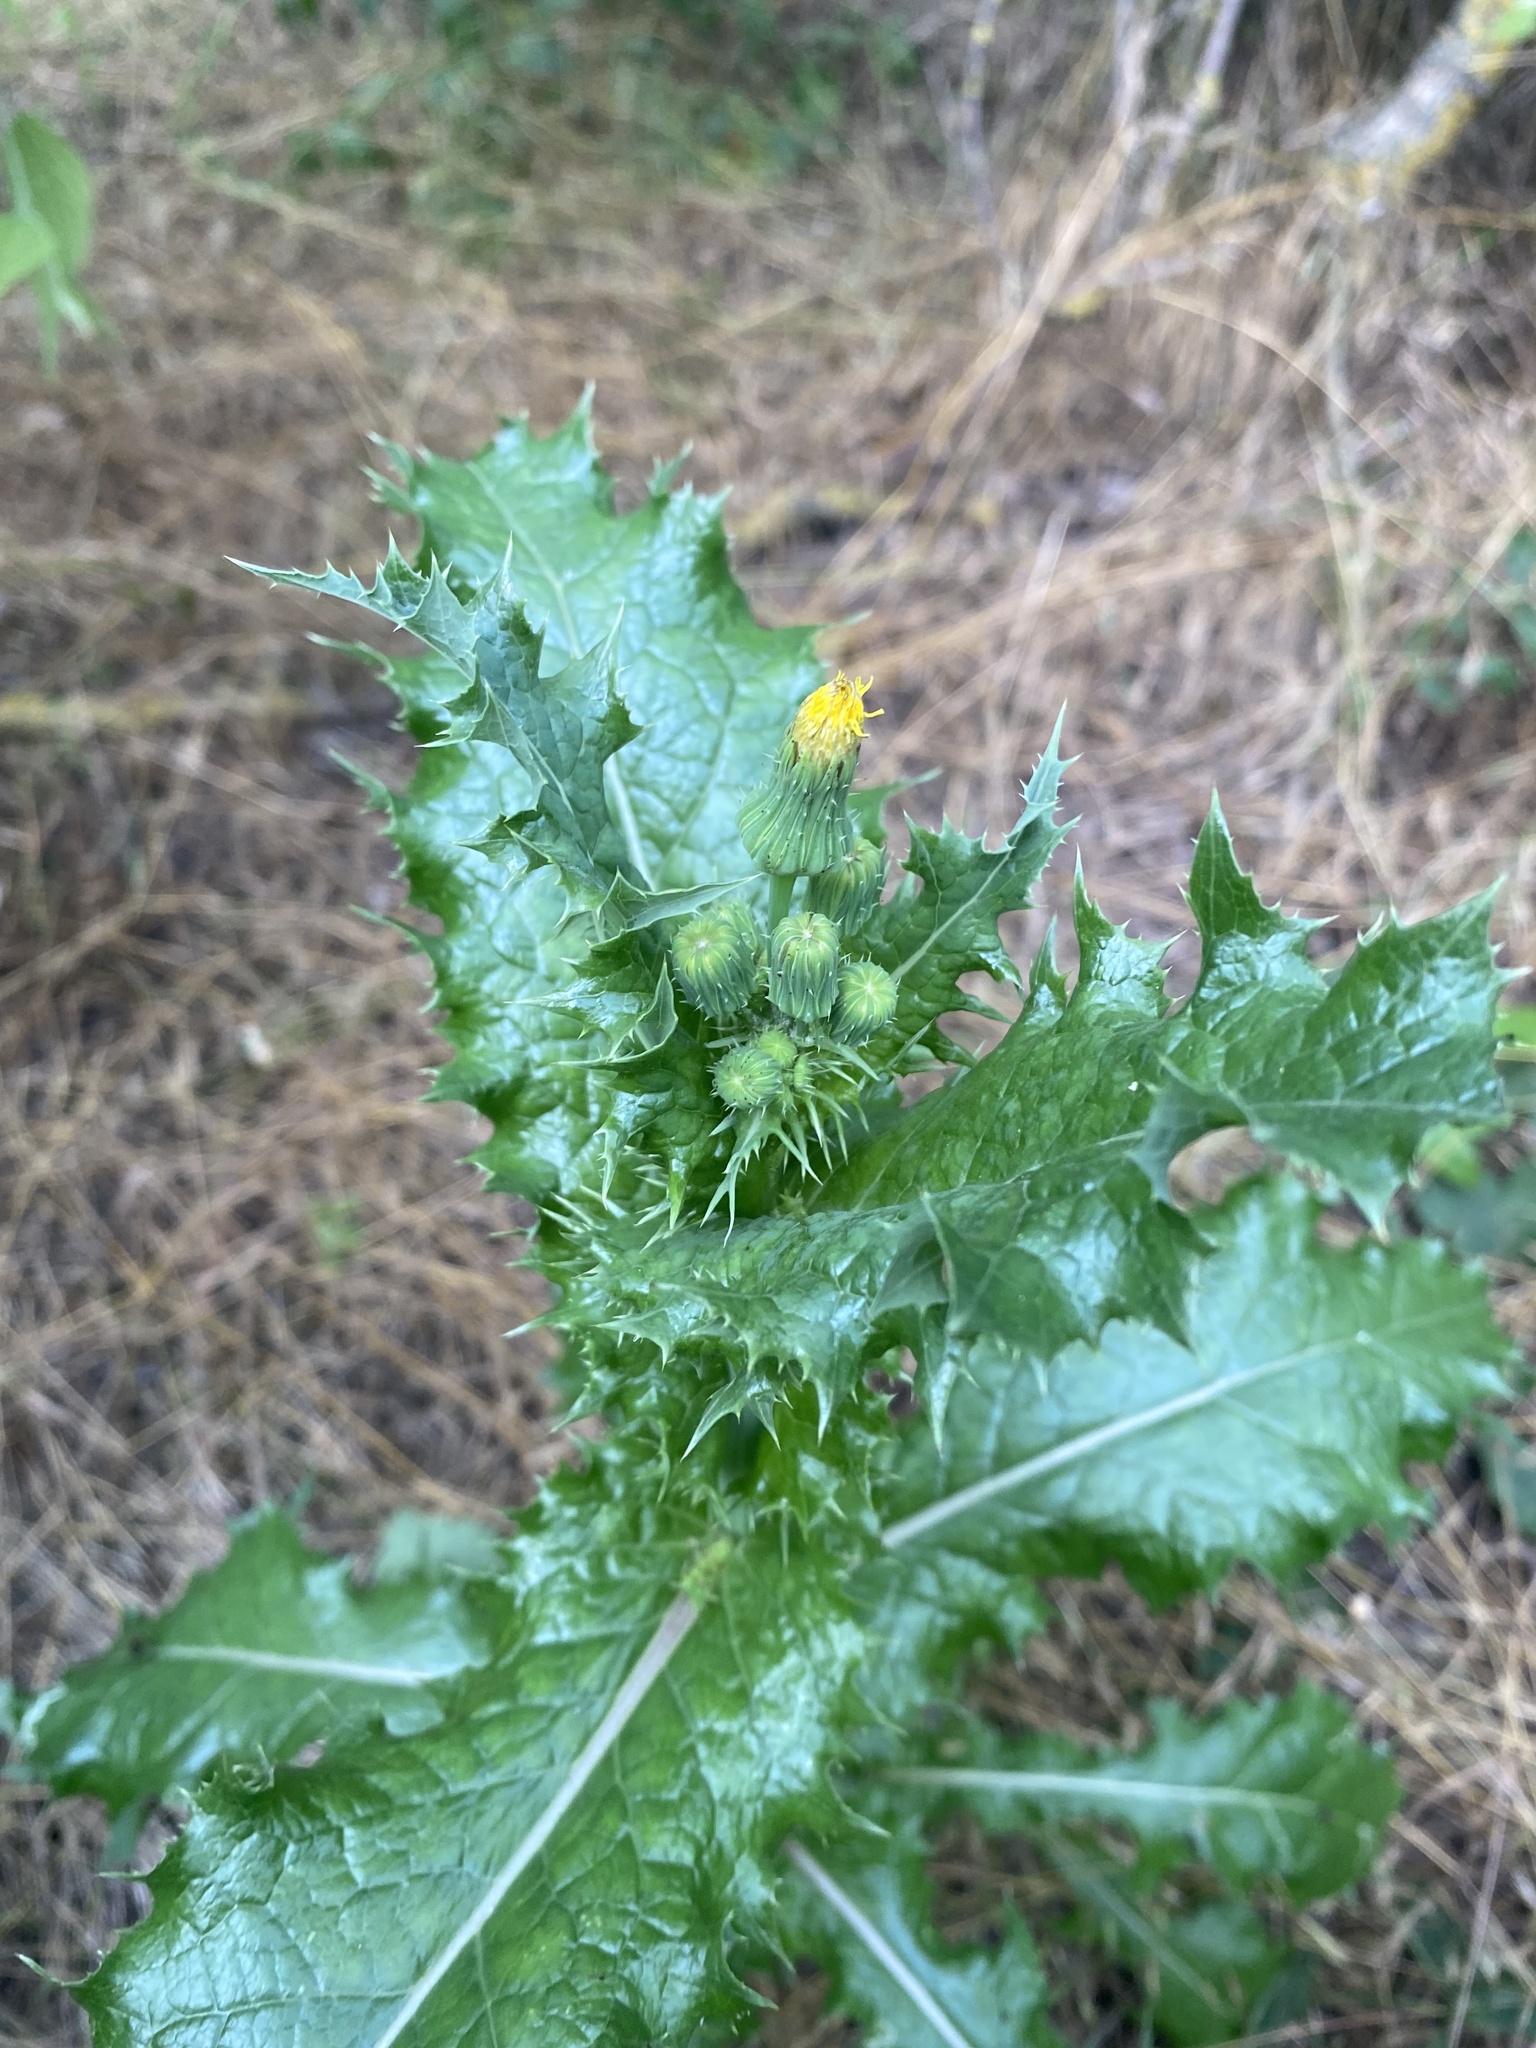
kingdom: Plantae
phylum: Tracheophyta
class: Magnoliopsida
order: Asterales
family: Asteraceae
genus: Sonchus
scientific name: Sonchus asper
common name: Prickly sow-thistle
